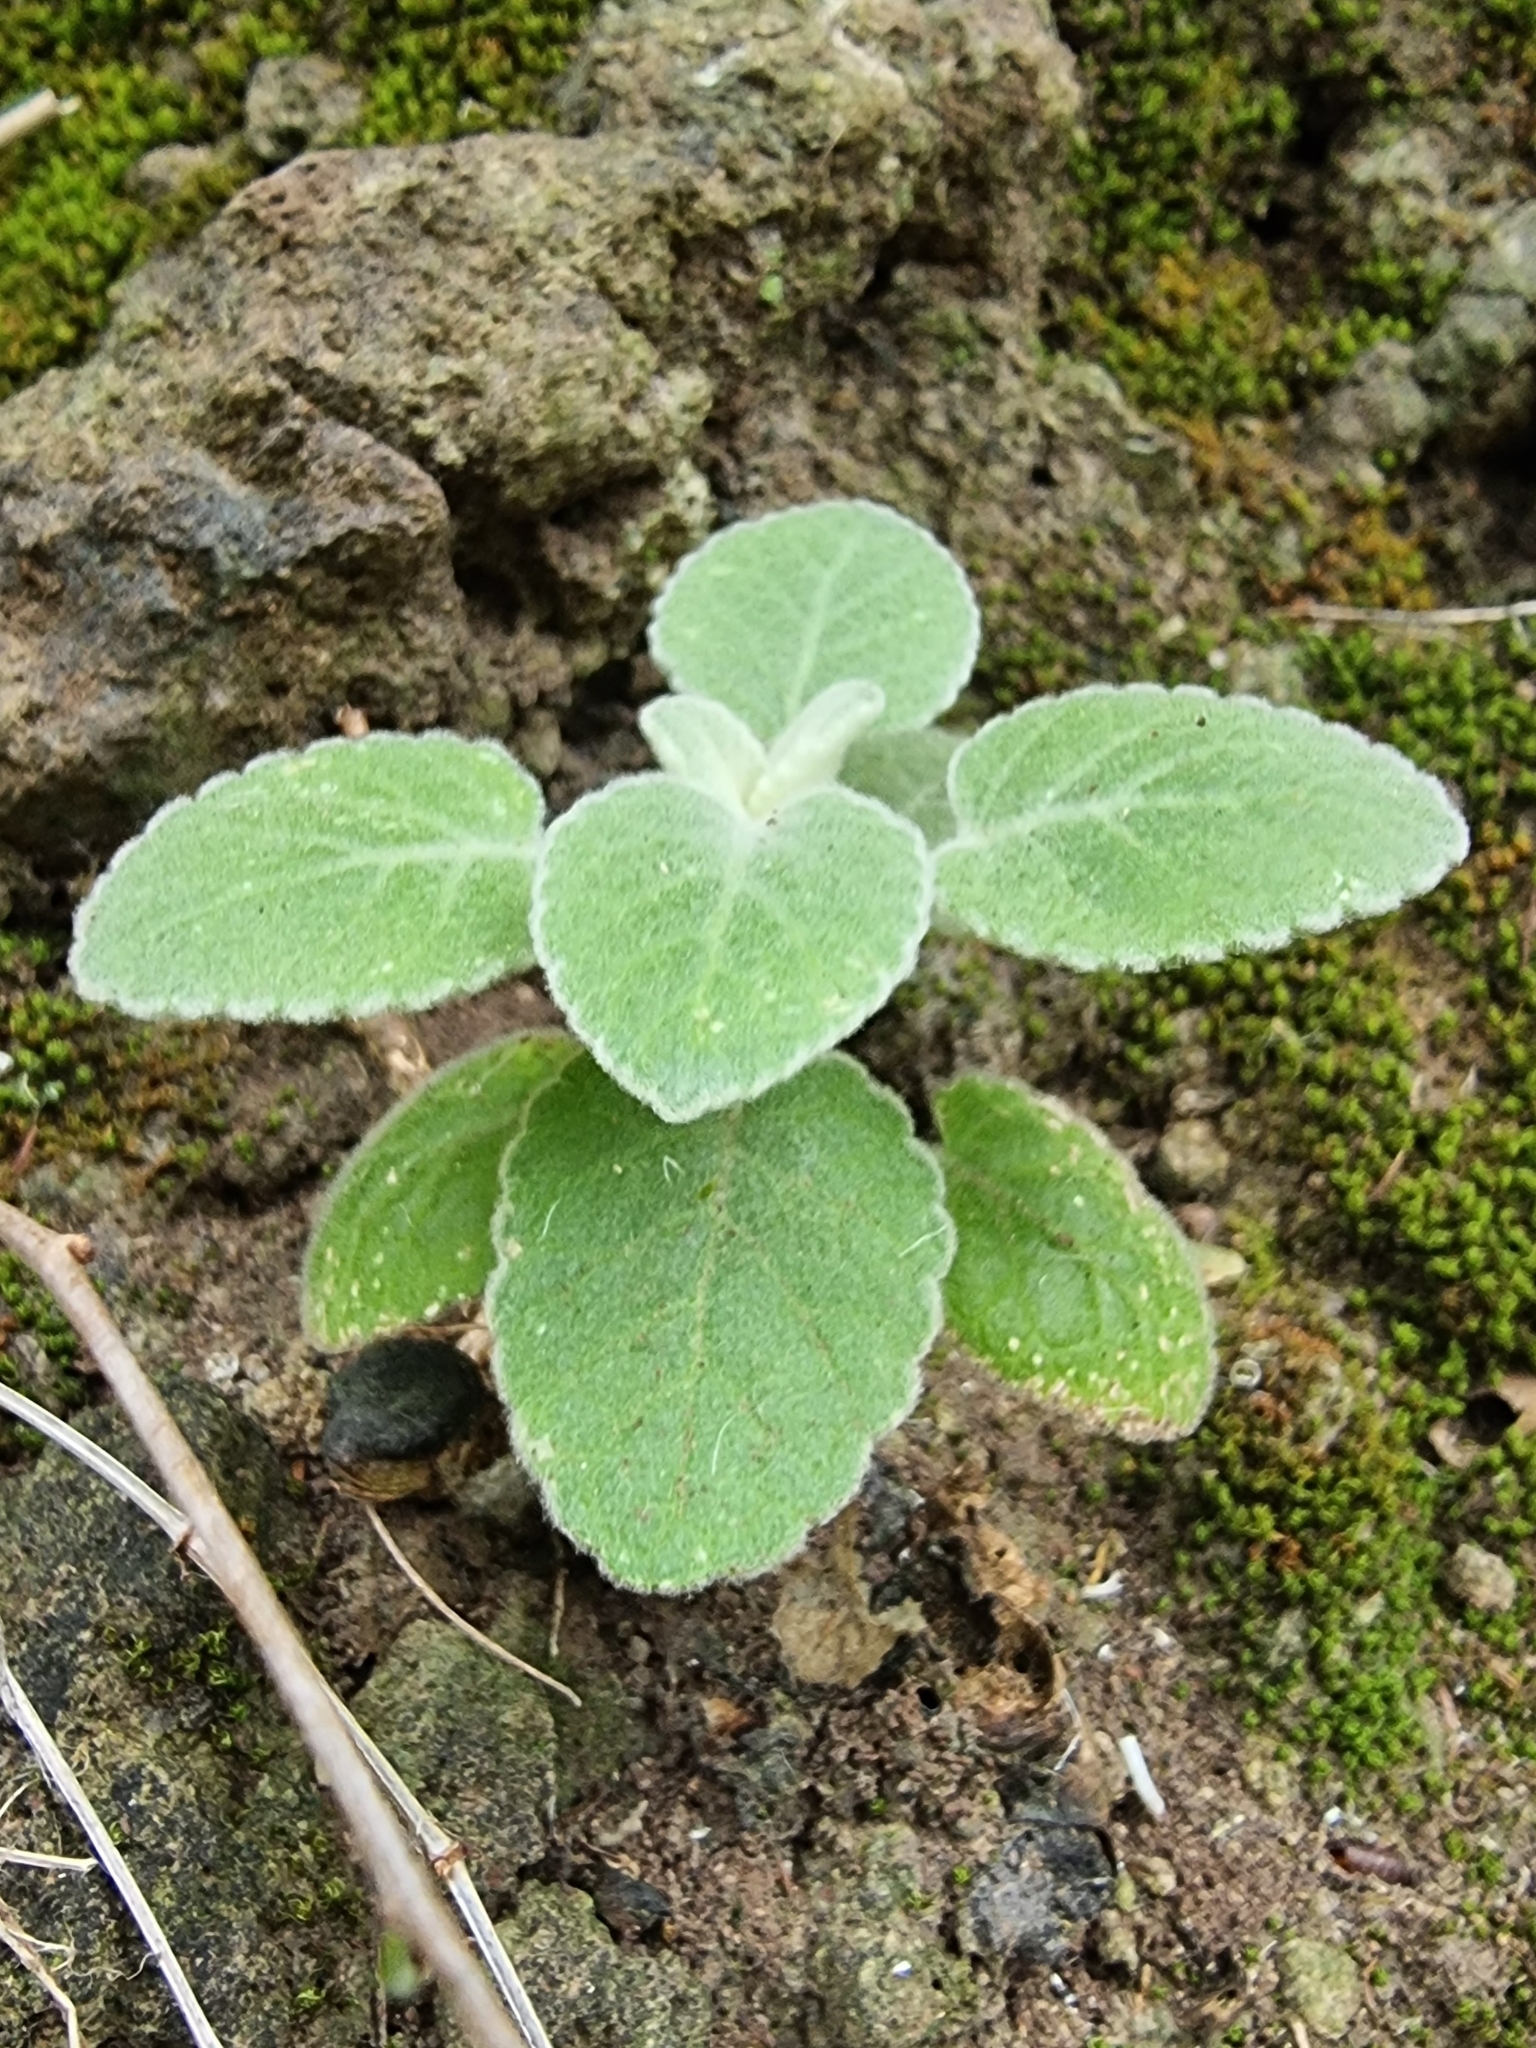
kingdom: Plantae
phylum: Tracheophyta
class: Magnoliopsida
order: Lamiales
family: Lamiaceae
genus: Sideritis
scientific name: Sideritis candicans
